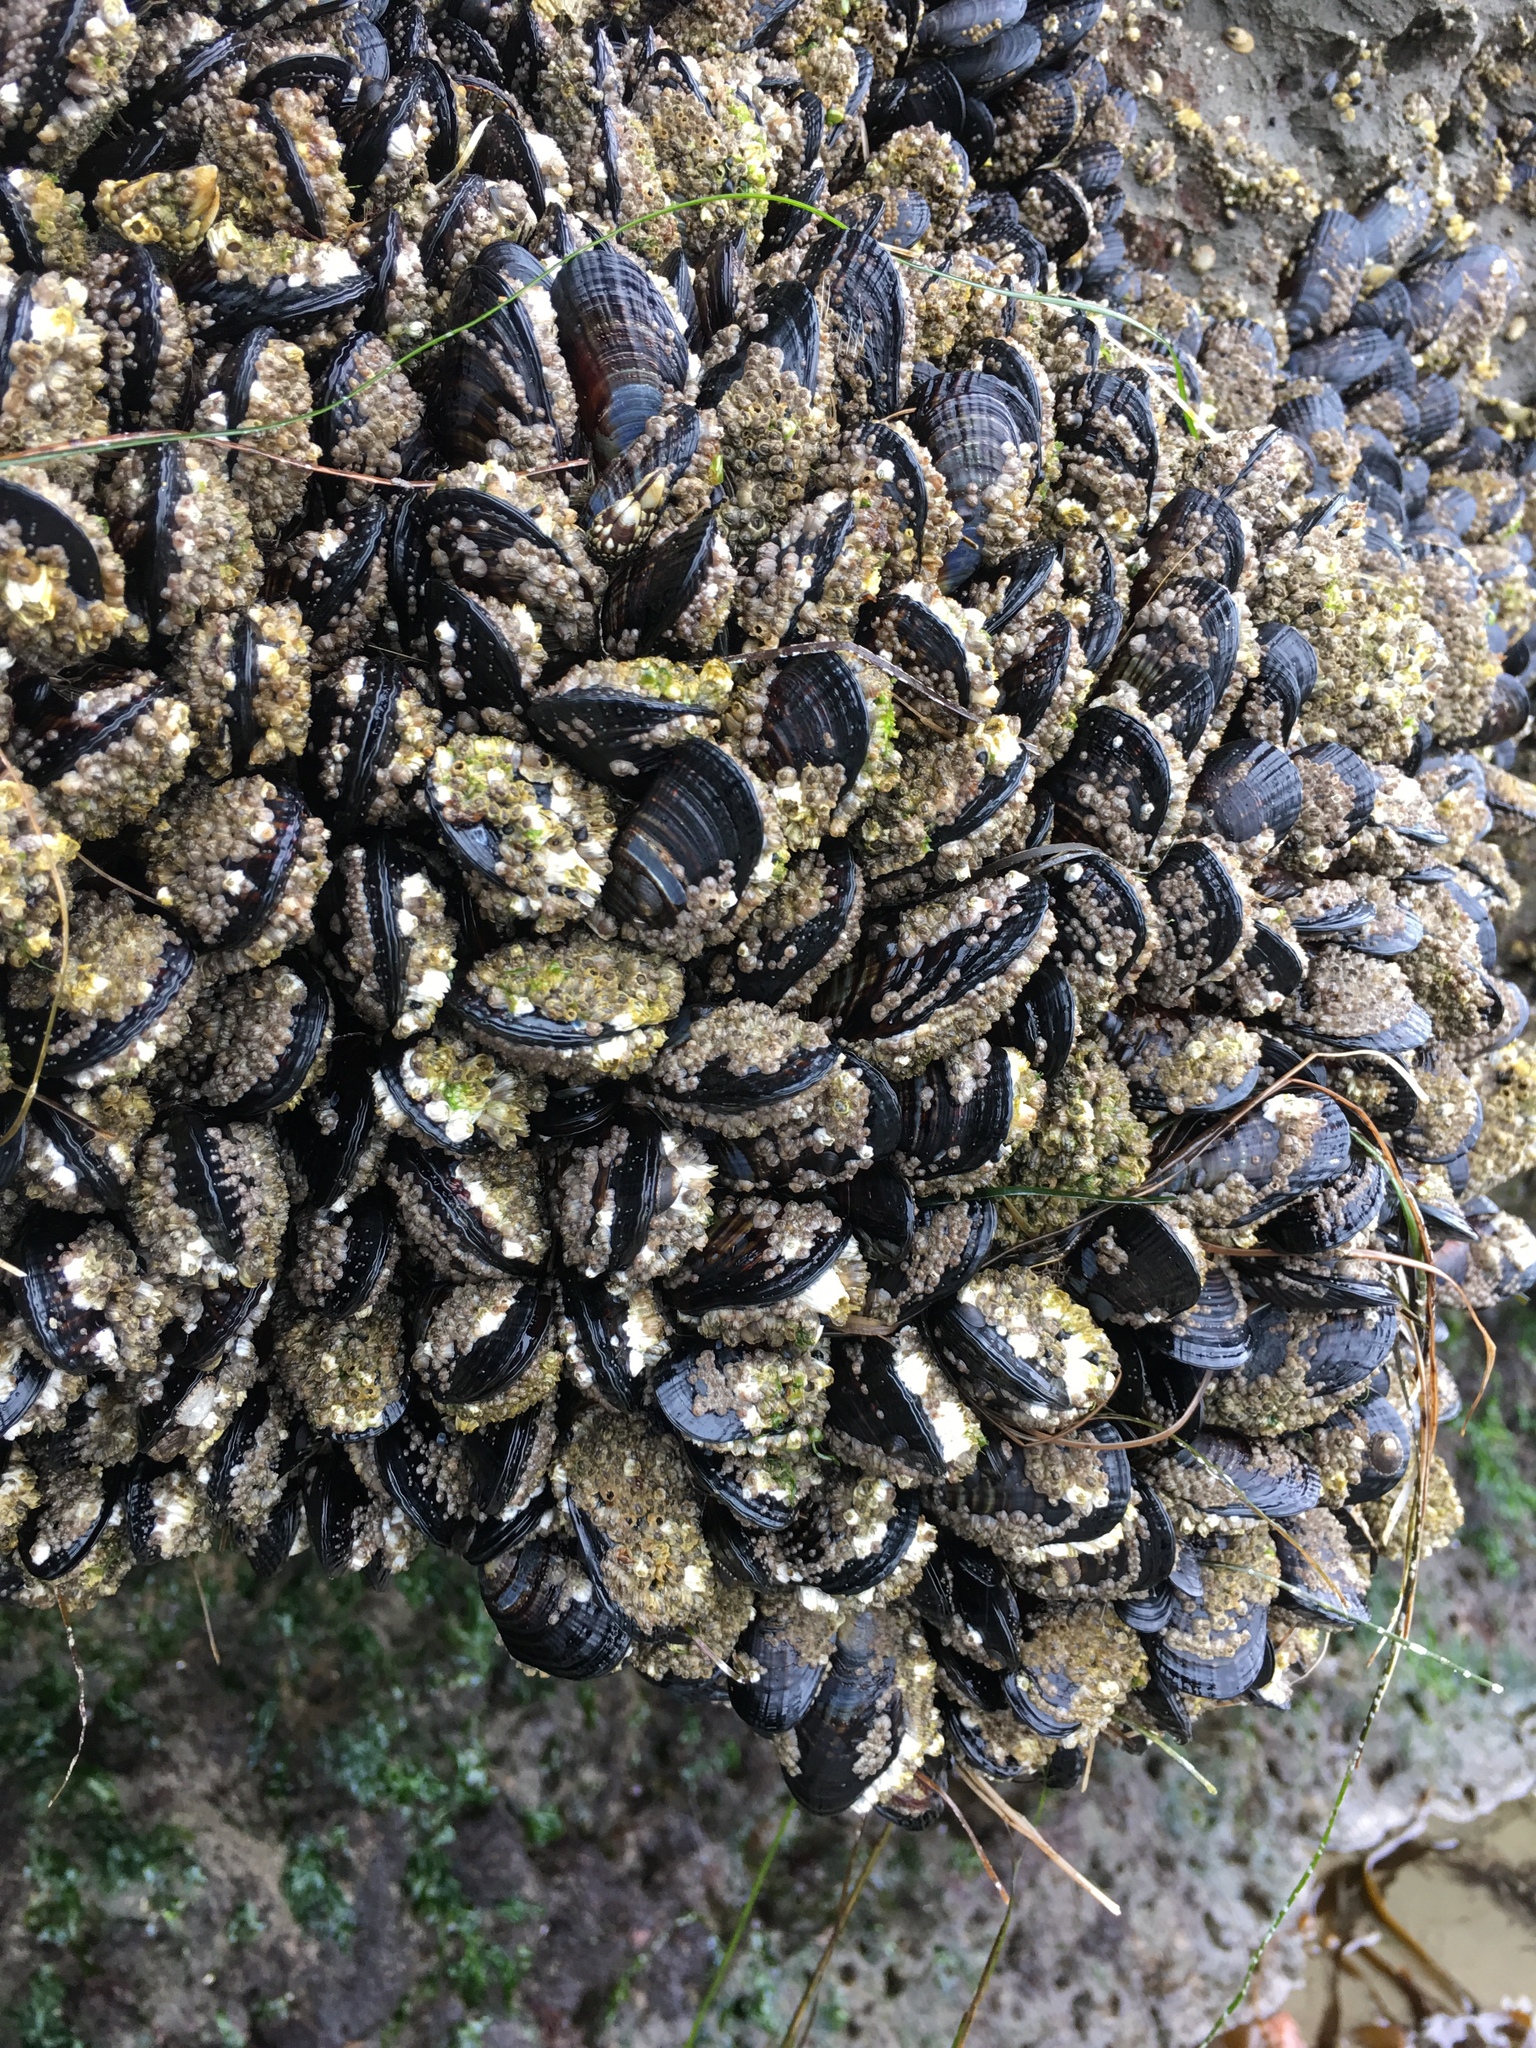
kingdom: Animalia
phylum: Mollusca
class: Bivalvia
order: Mytilida
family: Mytilidae
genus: Mytilus
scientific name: Mytilus californianus
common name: California mussel
